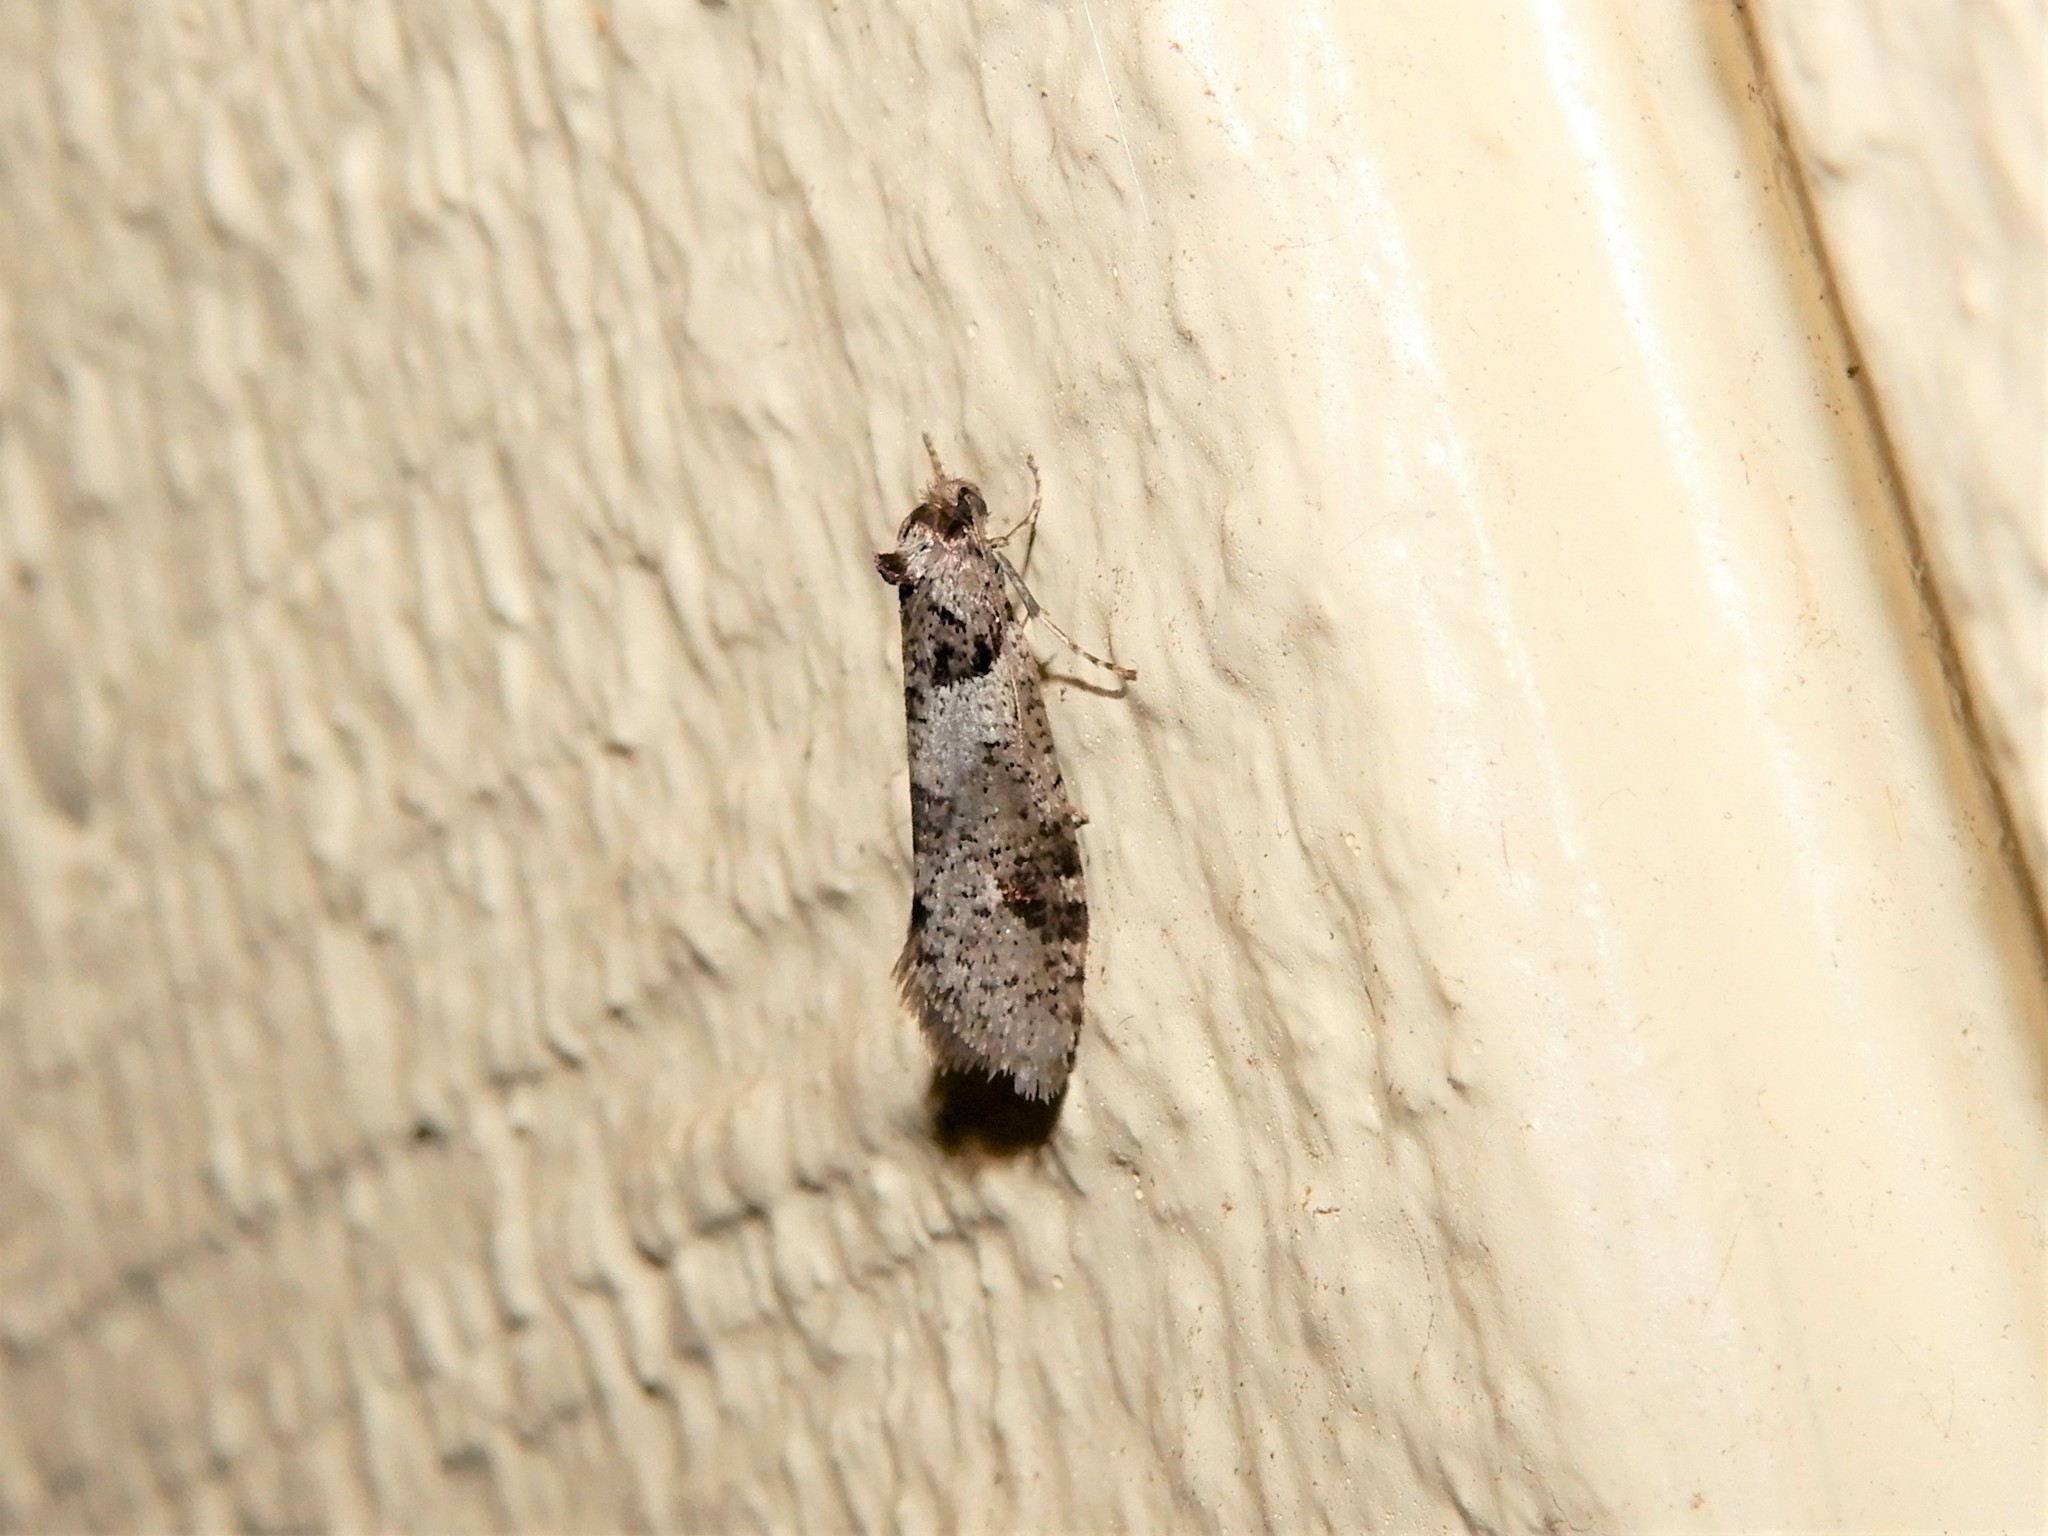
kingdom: Animalia
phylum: Arthropoda
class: Insecta
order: Lepidoptera
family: Psychidae
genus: Lepidoscia
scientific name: Lepidoscia heliochares
